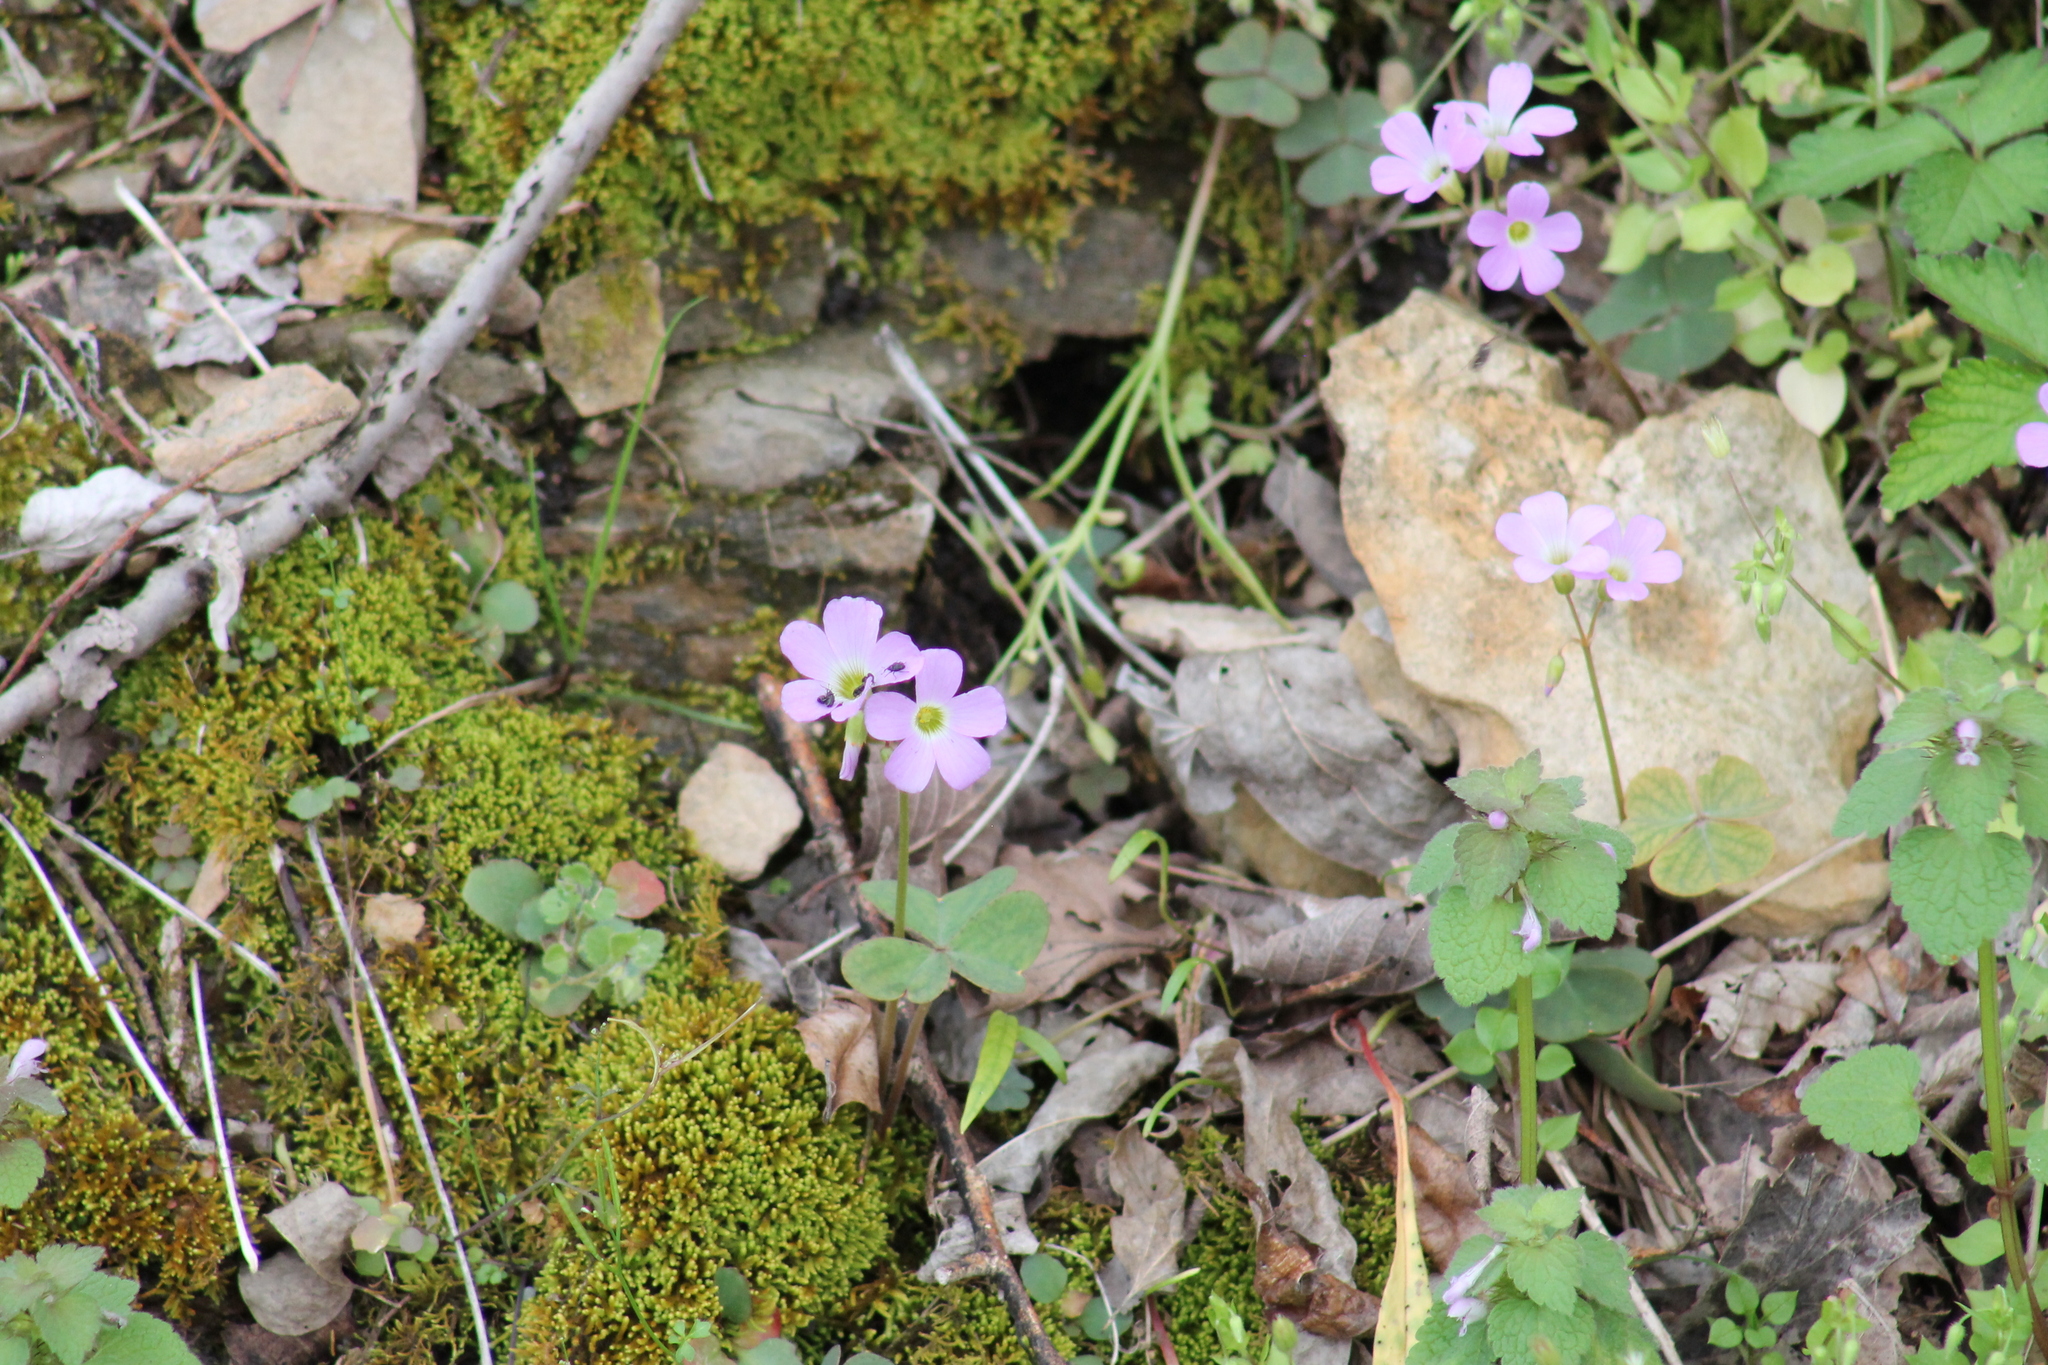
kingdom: Plantae
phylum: Tracheophyta
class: Magnoliopsida
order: Oxalidales
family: Oxalidaceae
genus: Oxalis
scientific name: Oxalis violacea
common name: Violet wood-sorrel
